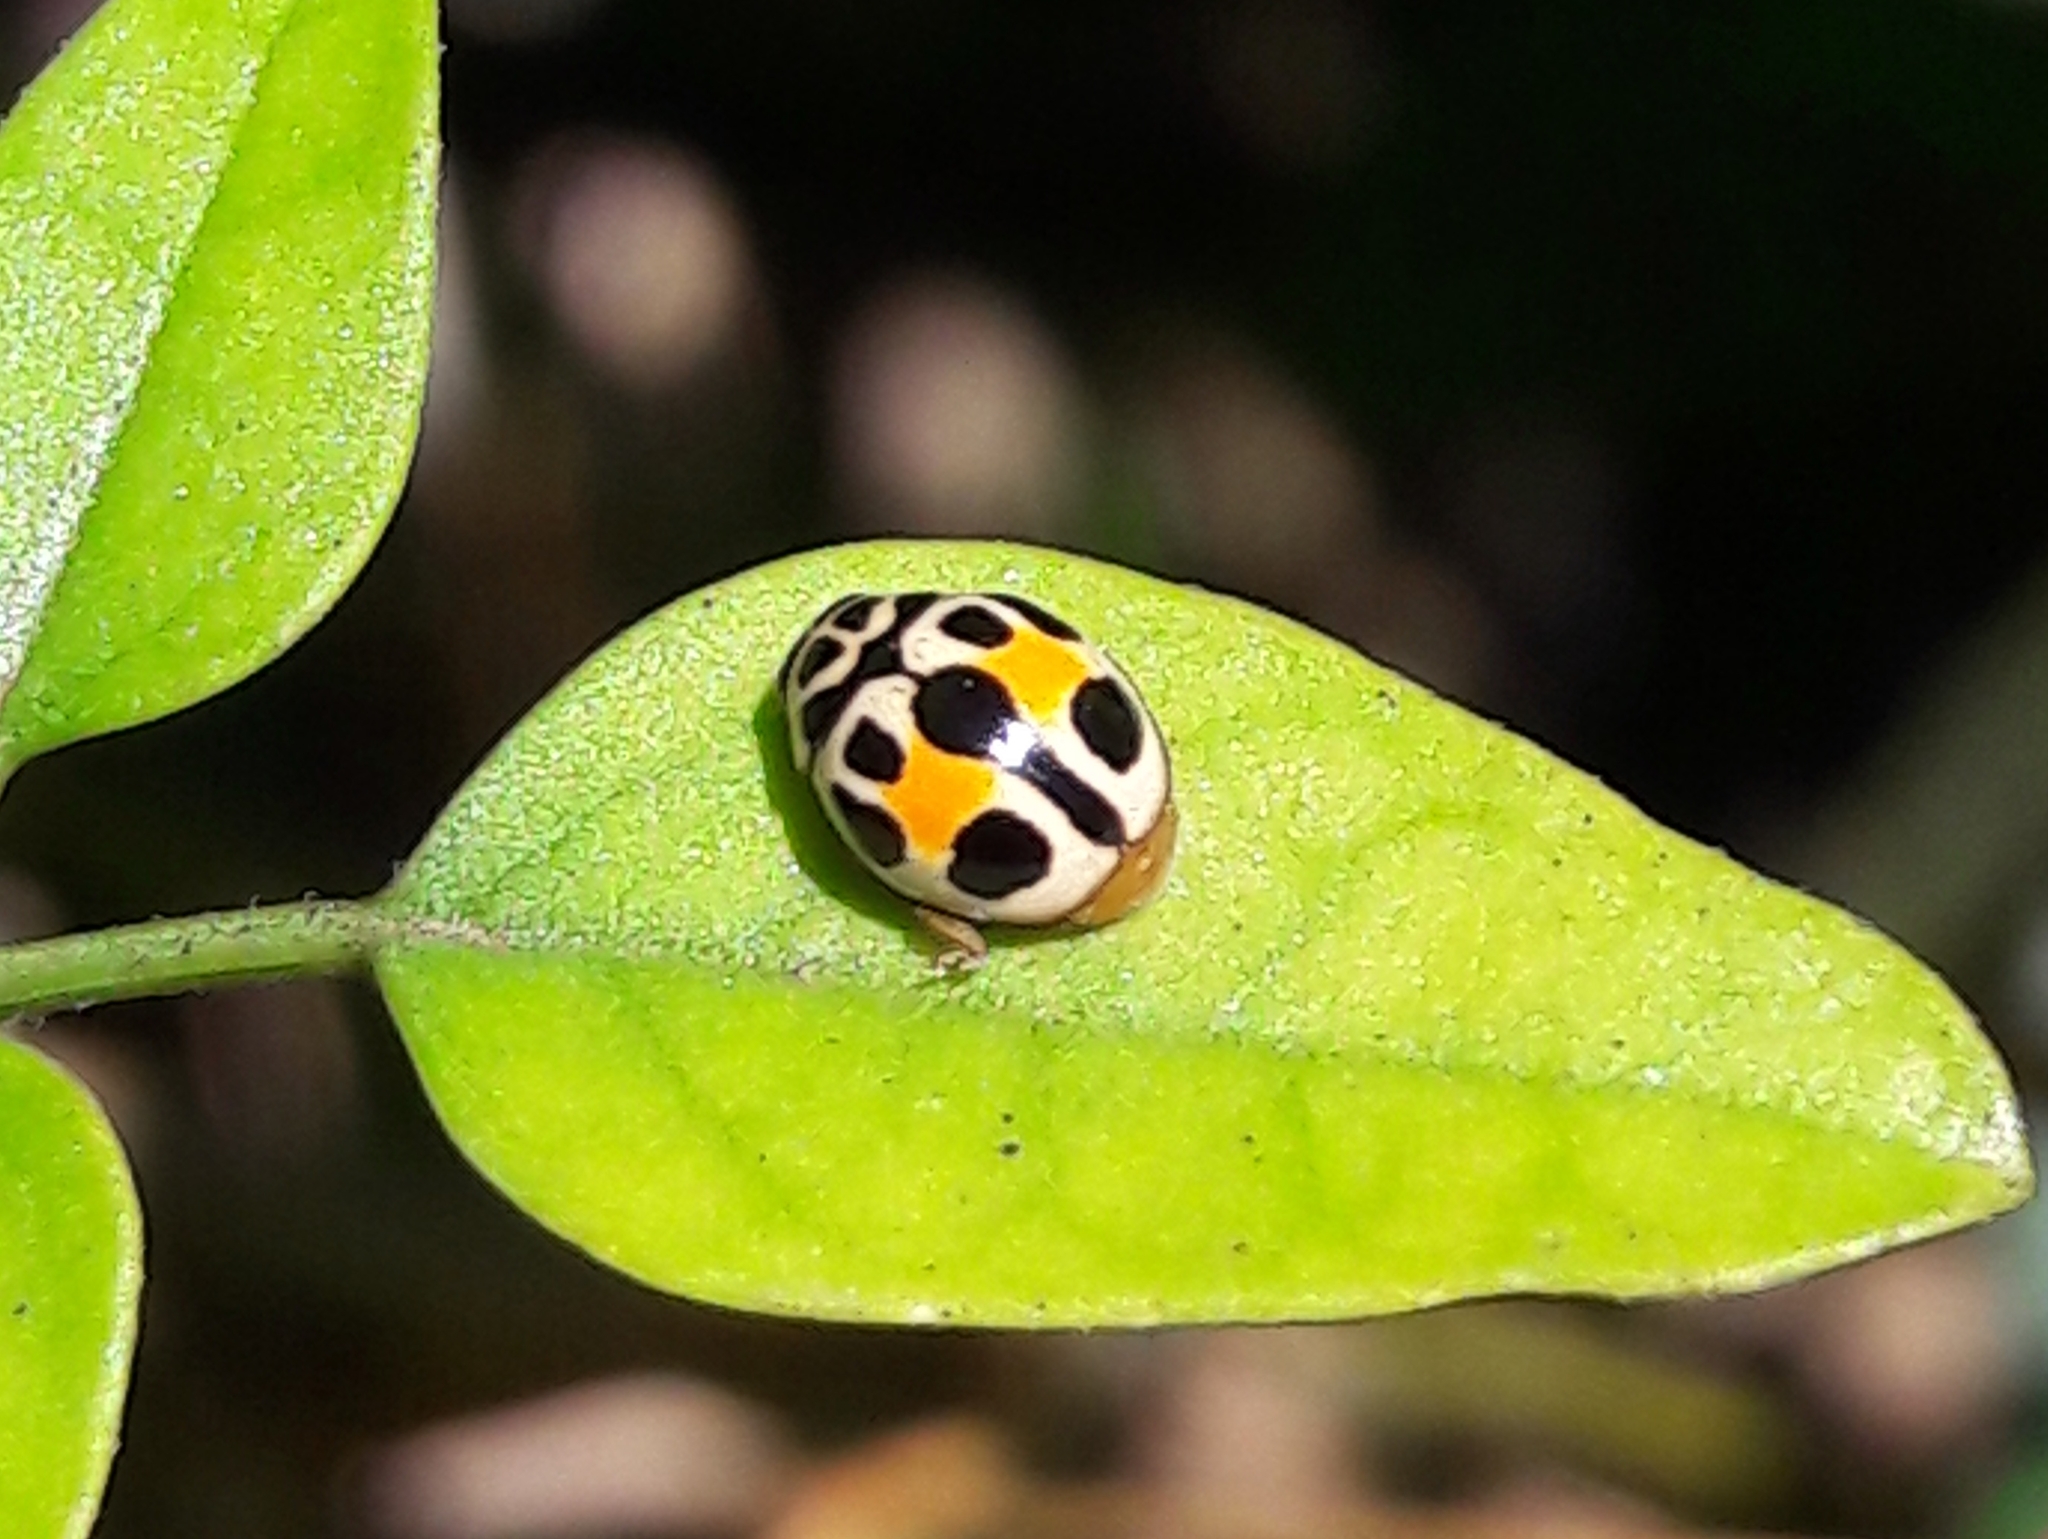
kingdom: Animalia
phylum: Arthropoda
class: Insecta
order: Coleoptera
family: Coccinellidae
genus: Tenuisvalvae
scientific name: Tenuisvalvae
